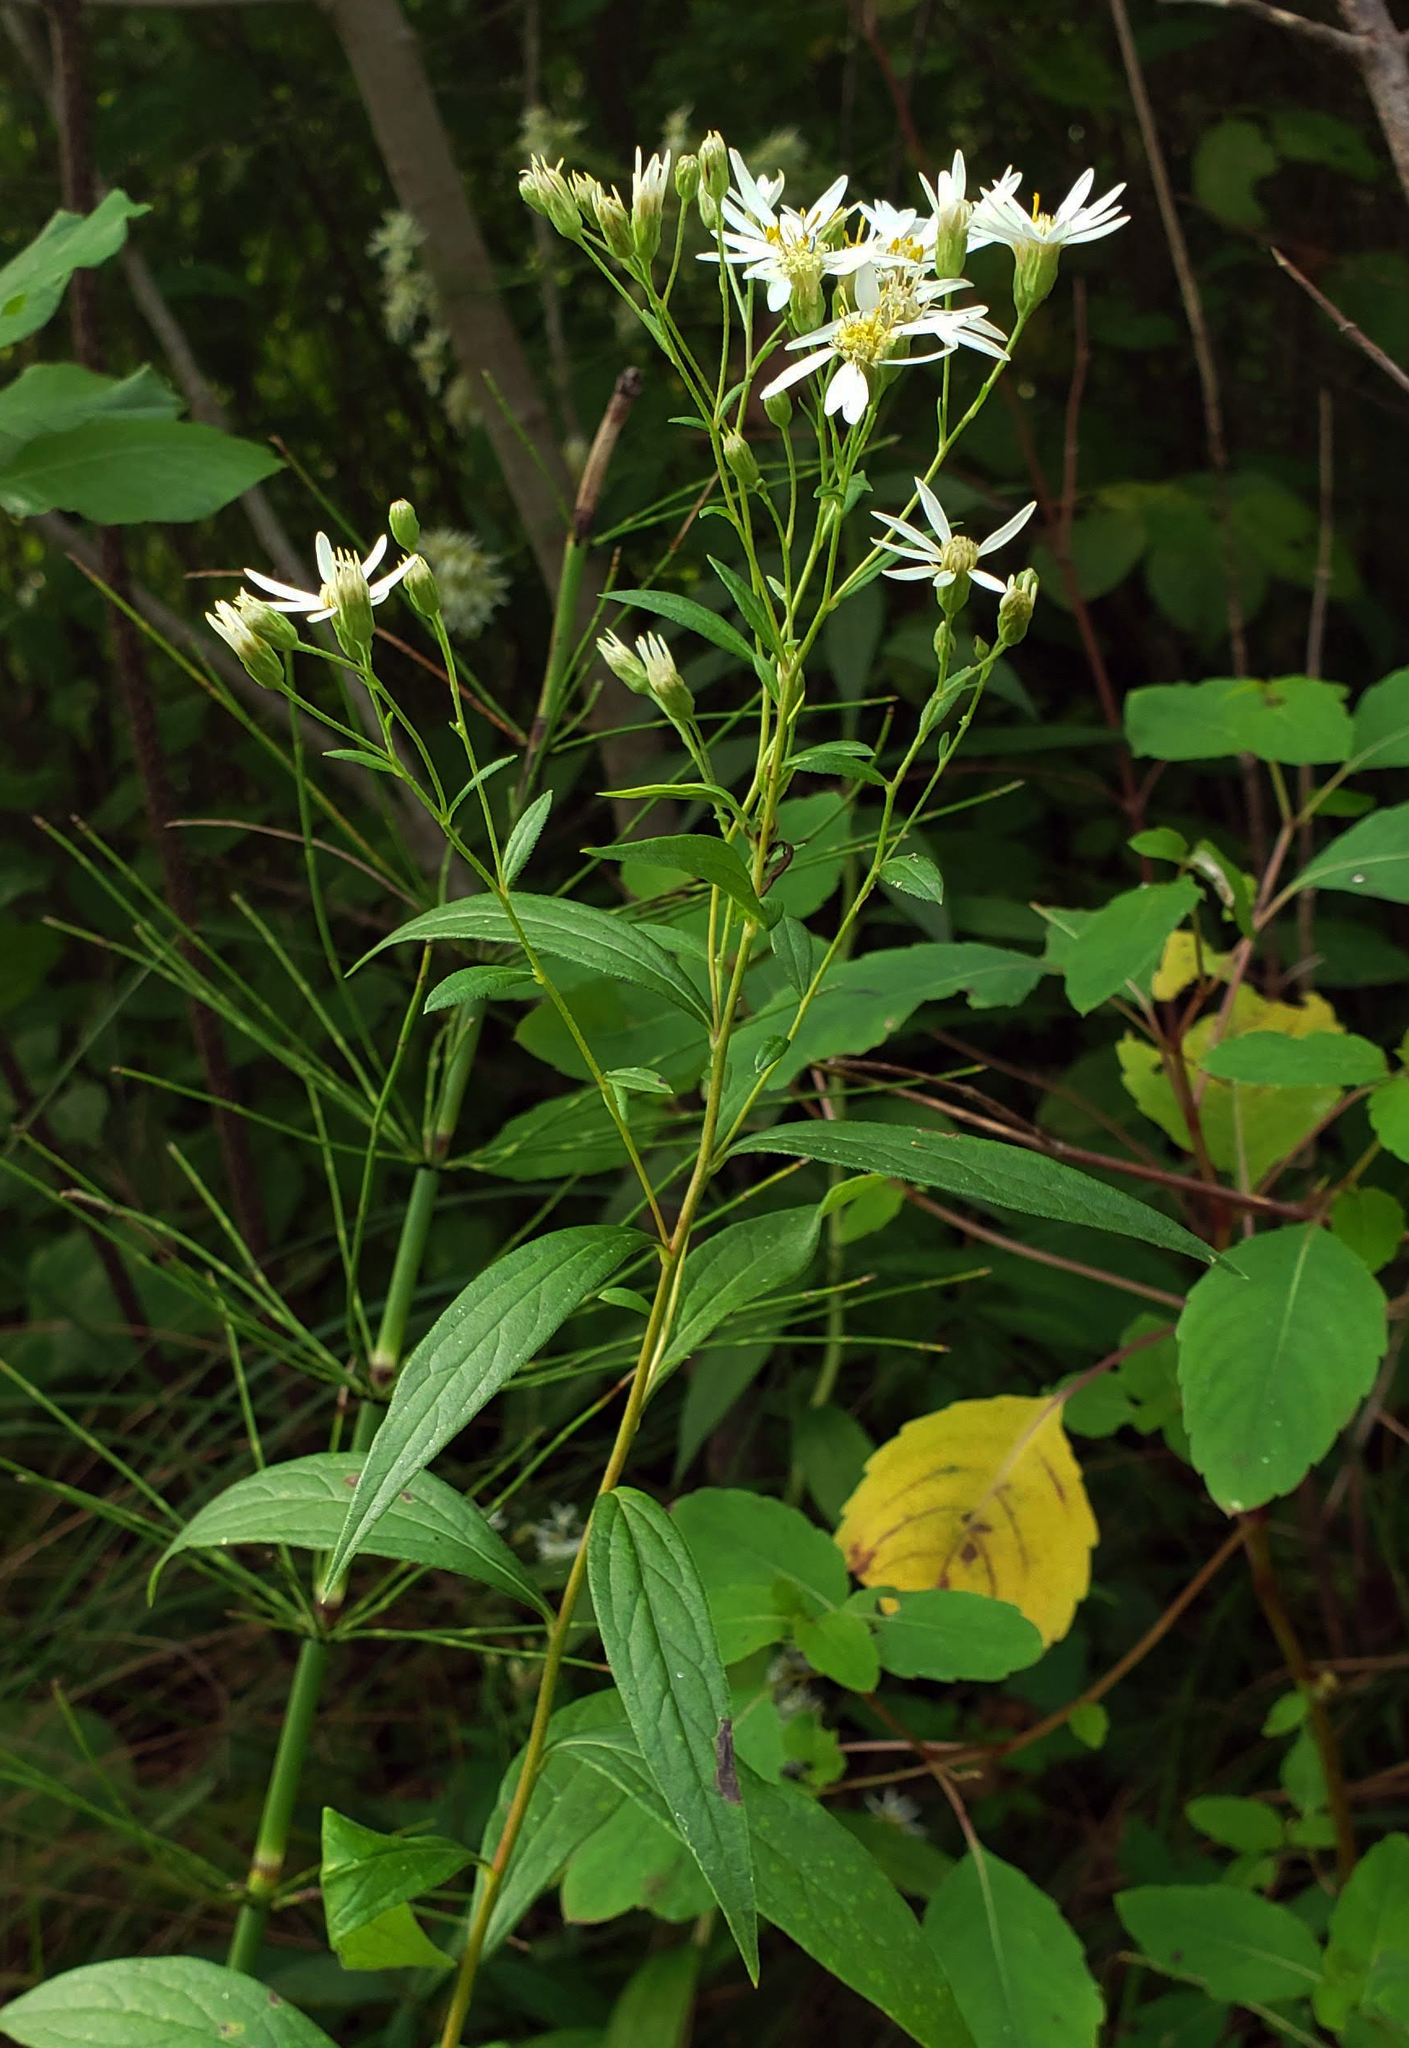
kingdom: Plantae
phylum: Tracheophyta
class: Magnoliopsida
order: Asterales
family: Asteraceae
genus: Doellingeria
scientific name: Doellingeria umbellata
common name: Flat-top white aster
